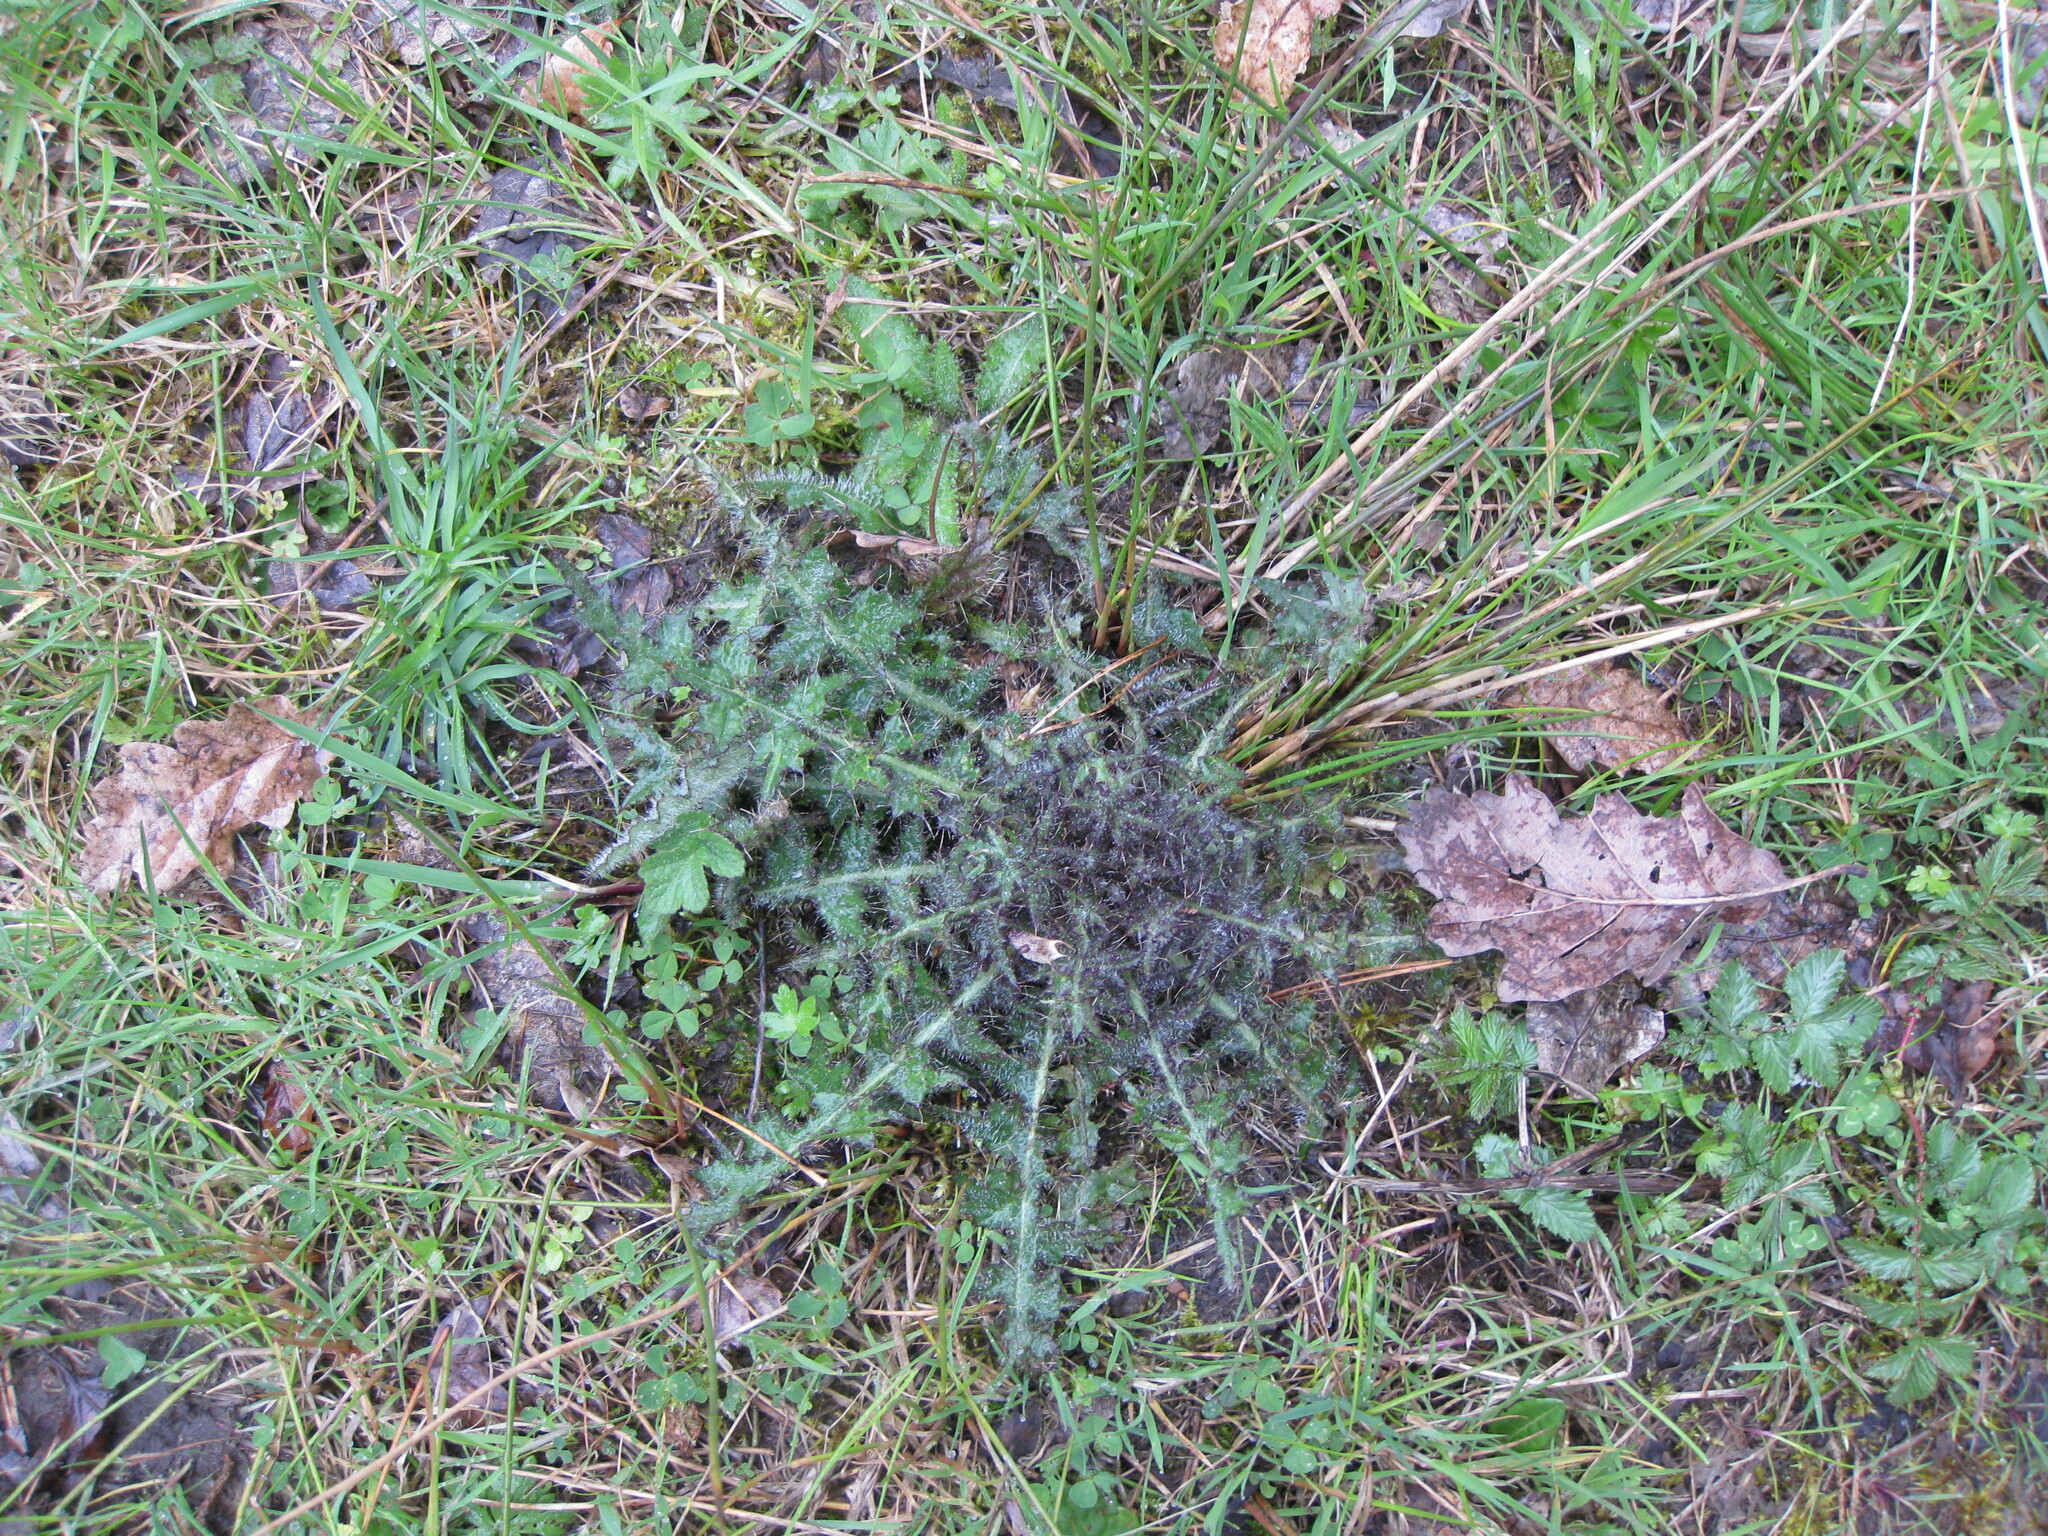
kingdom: Plantae
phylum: Tracheophyta
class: Magnoliopsida
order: Asterales
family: Asteraceae
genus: Cirsium
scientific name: Cirsium palustre
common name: Marsh thistle
